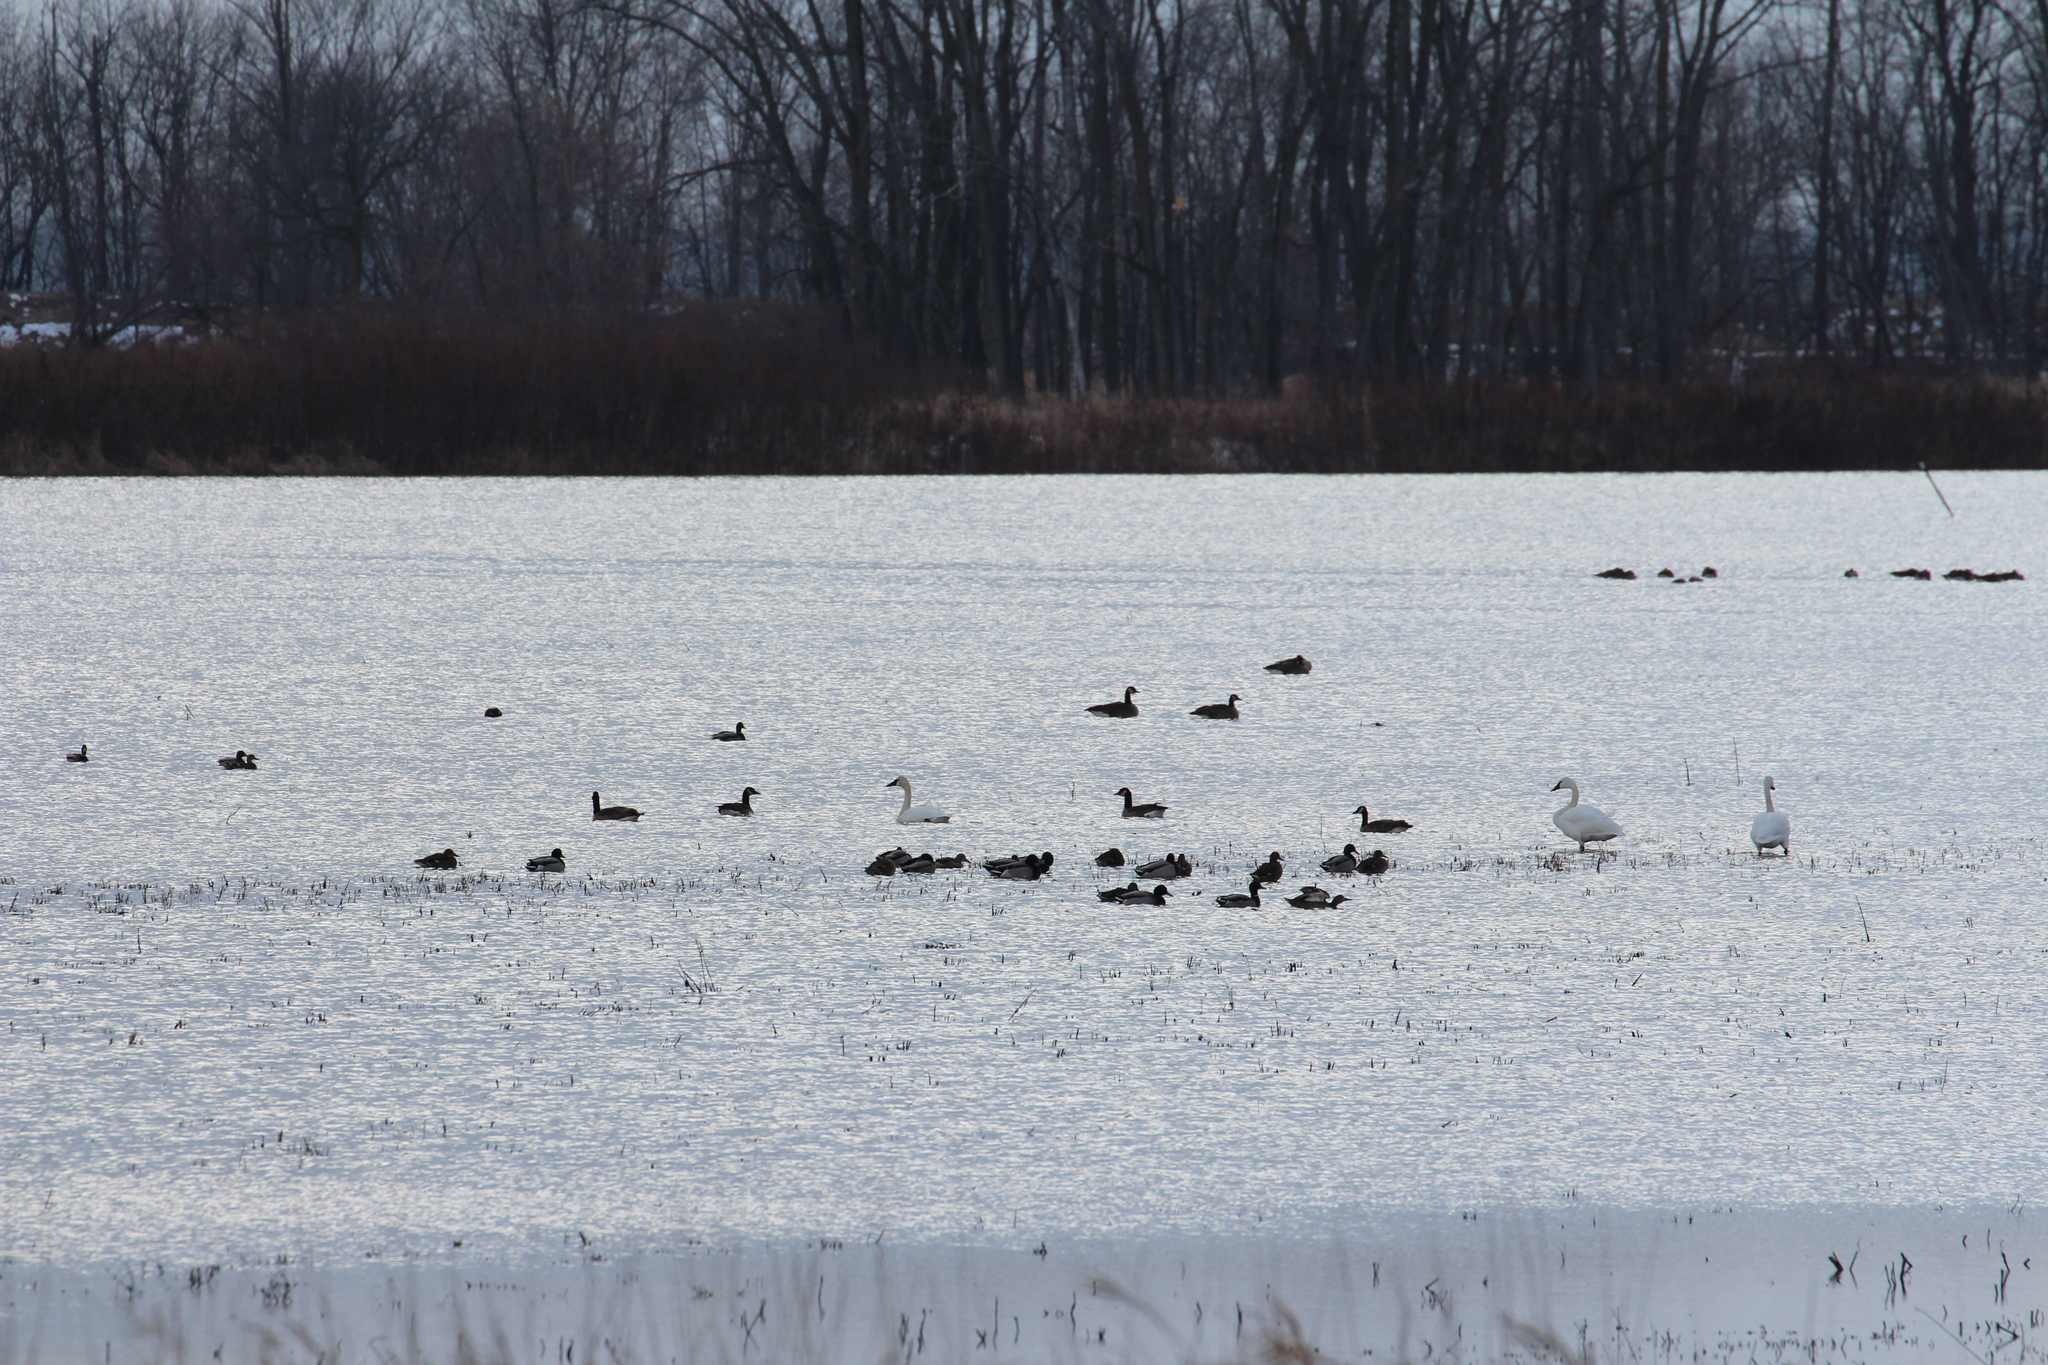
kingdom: Animalia
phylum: Chordata
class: Aves
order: Anseriformes
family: Anatidae
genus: Cygnus
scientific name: Cygnus columbianus
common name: Tundra swan
